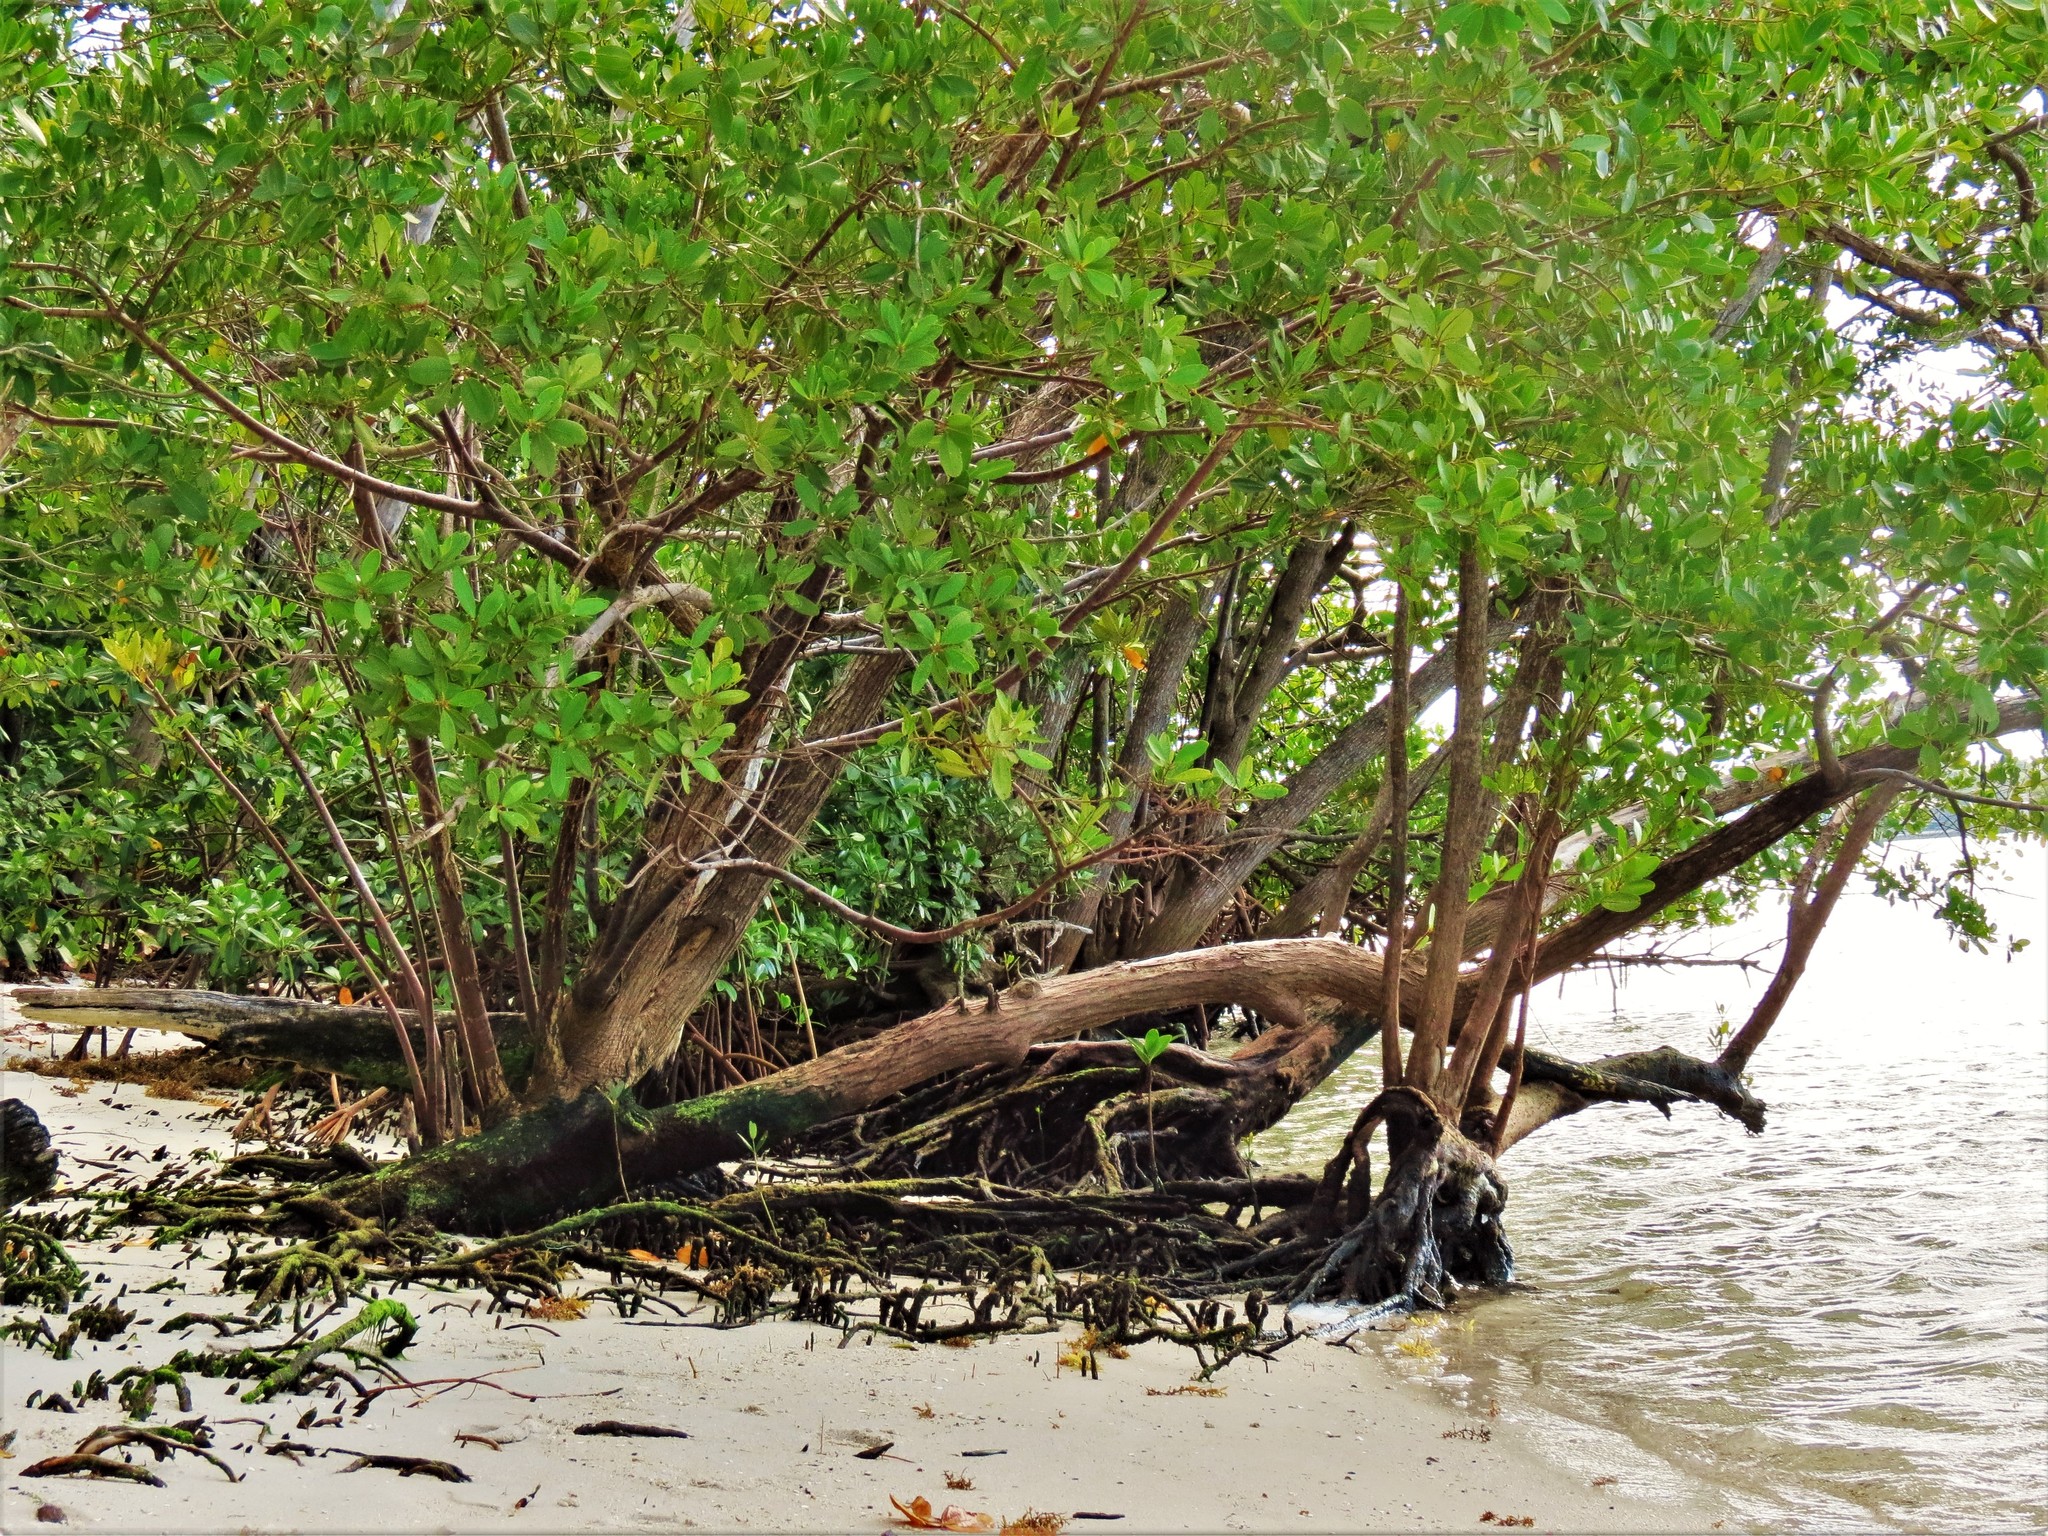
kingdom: Plantae
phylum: Tracheophyta
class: Magnoliopsida
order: Myrtales
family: Combretaceae
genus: Laguncularia
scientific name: Laguncularia racemosa
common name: White mangrove
